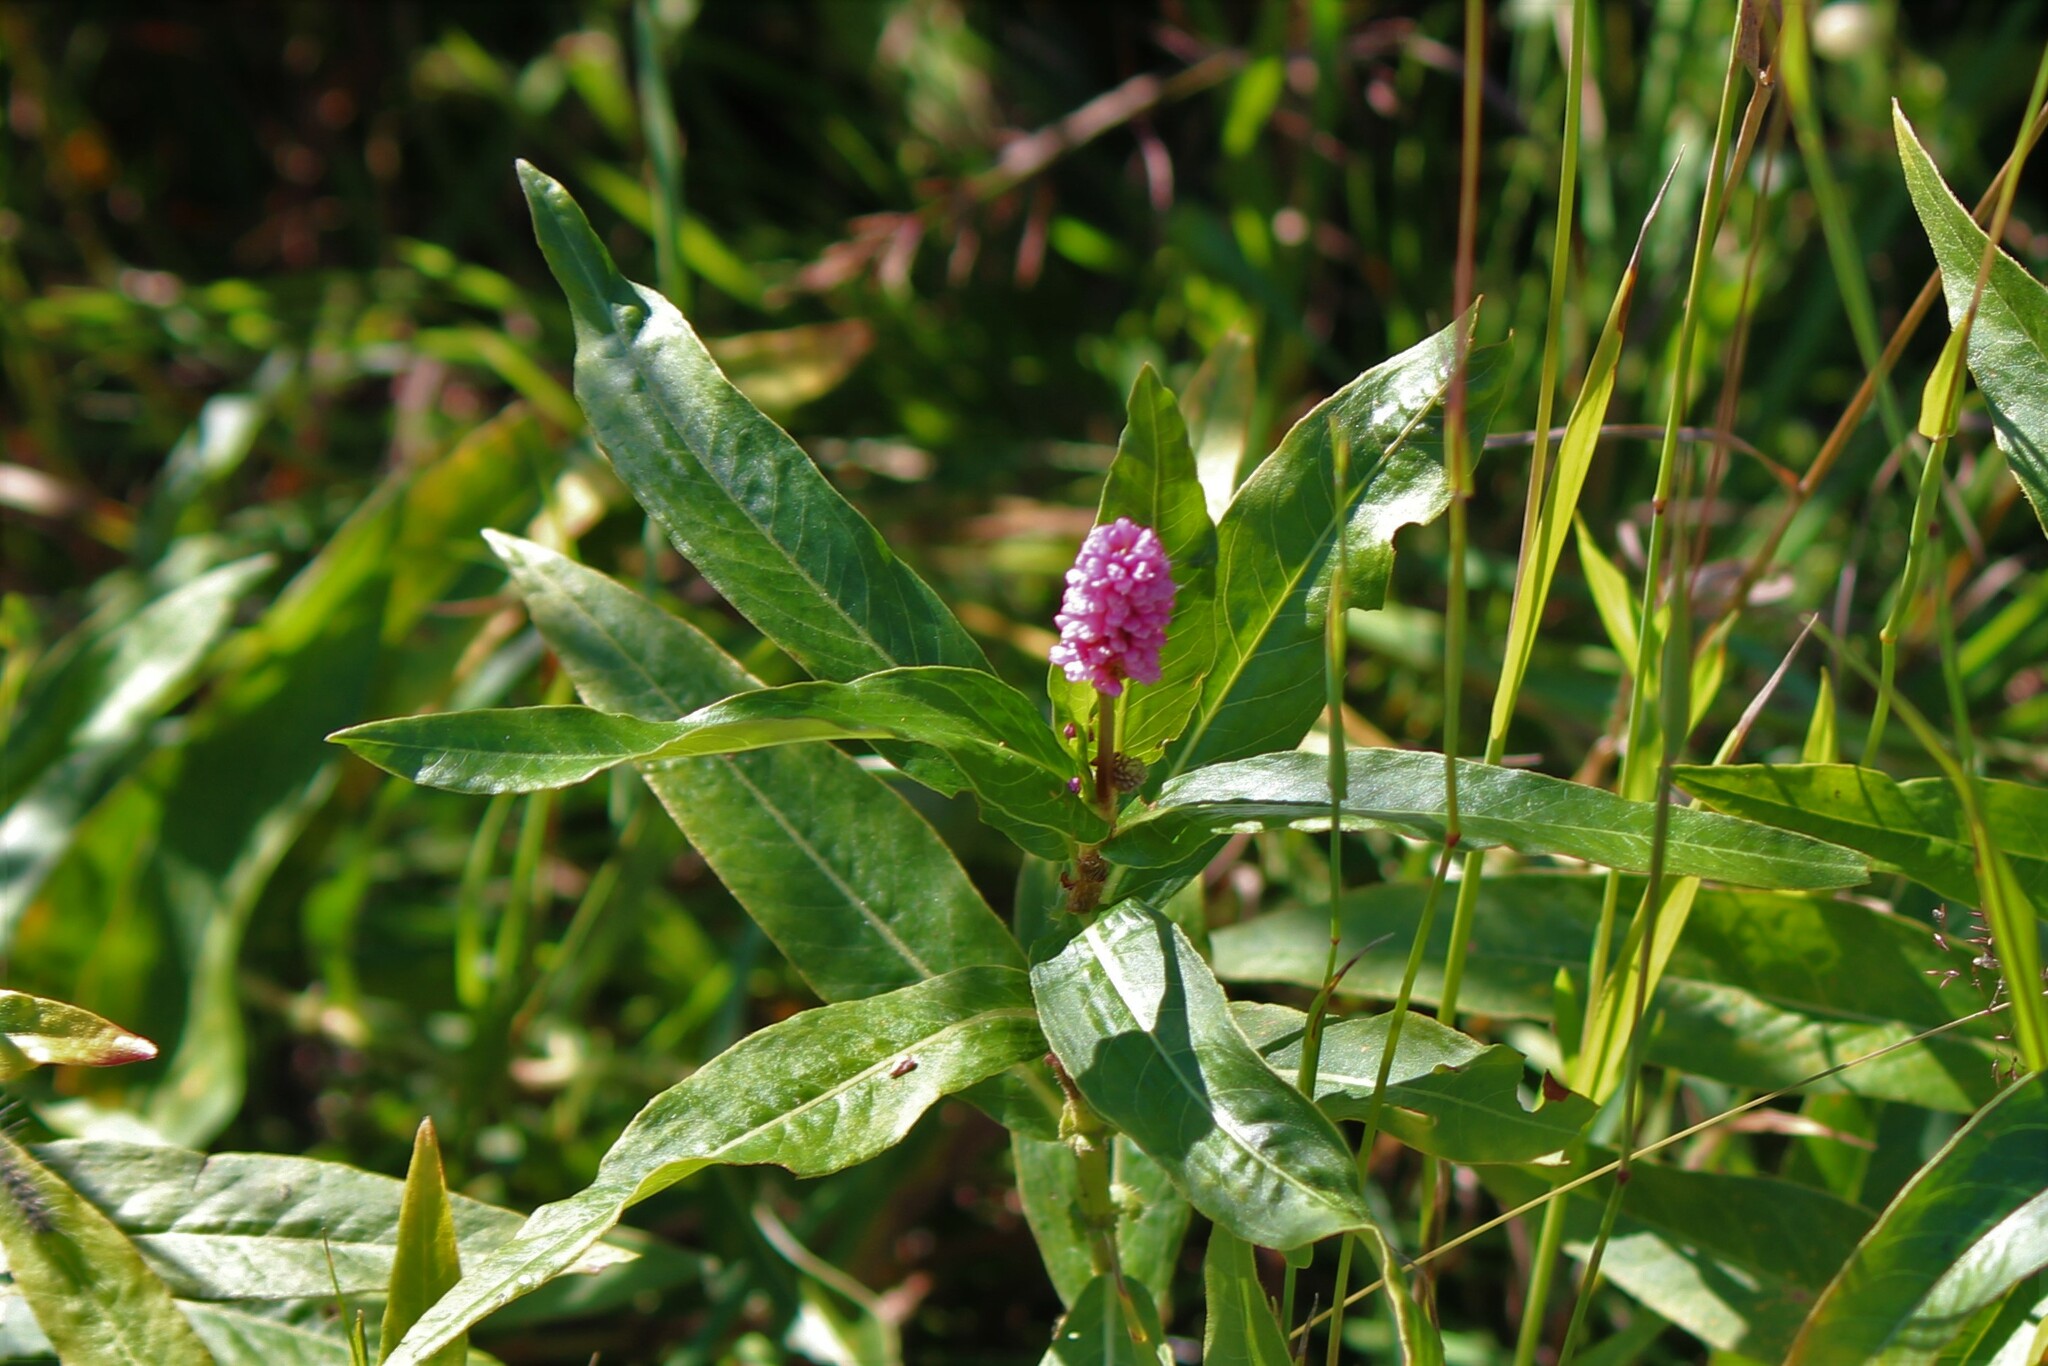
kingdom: Plantae
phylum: Tracheophyta
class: Magnoliopsida
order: Caryophyllales
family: Polygonaceae
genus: Persicaria
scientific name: Persicaria amphibia
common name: Amphibious bistort
